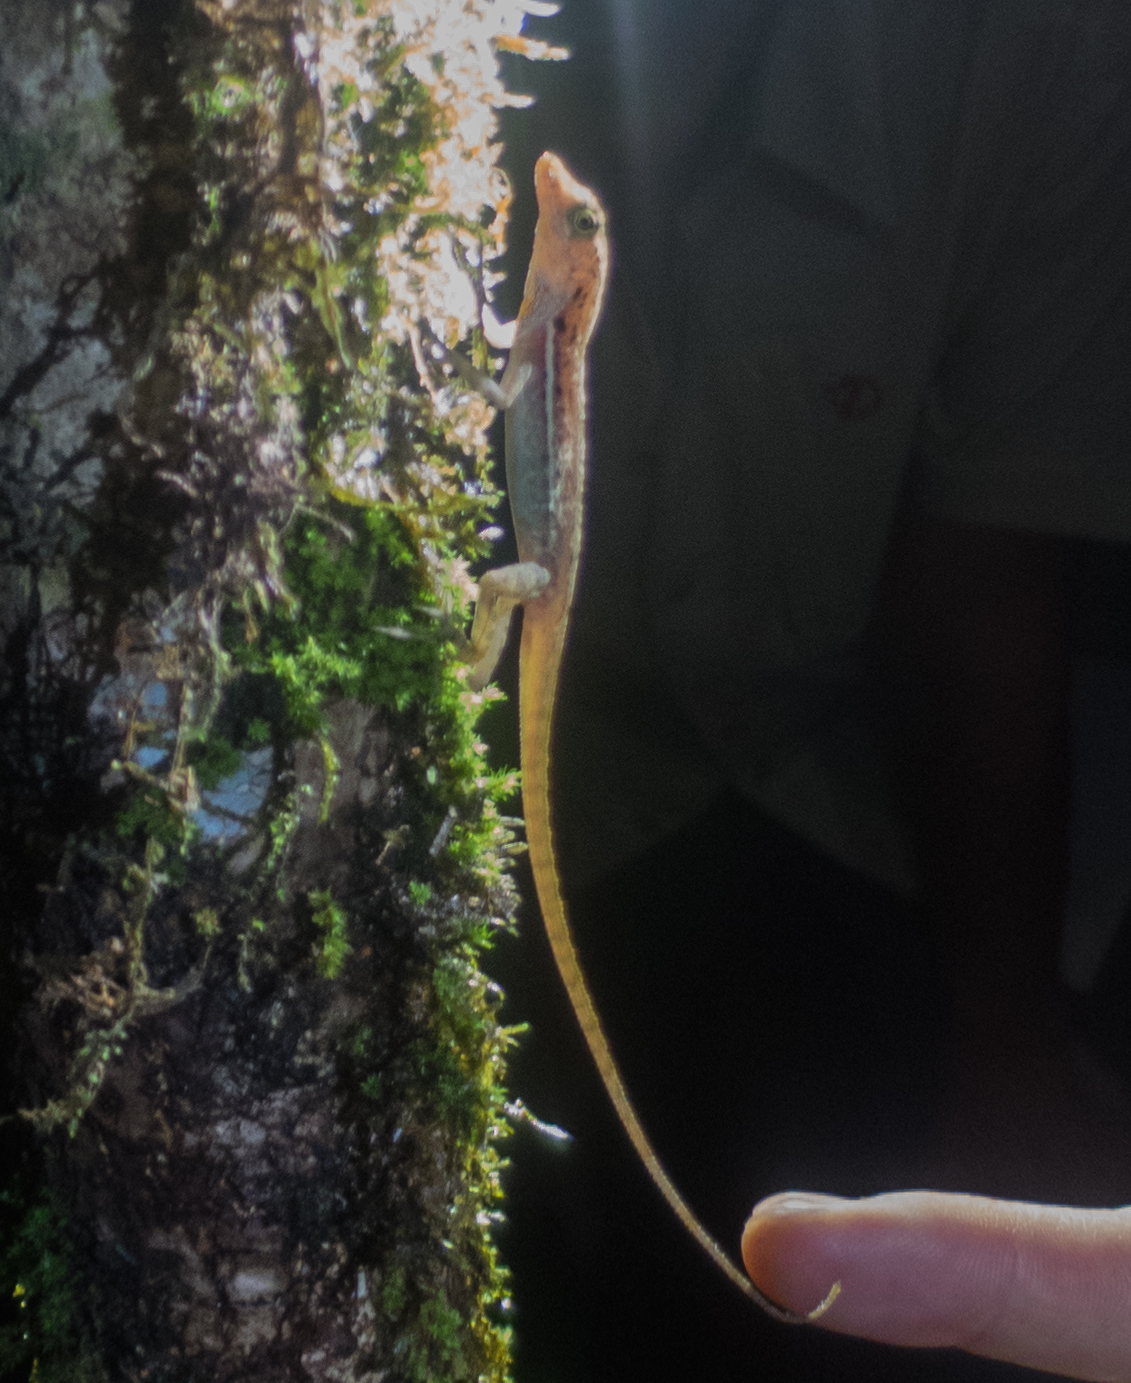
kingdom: Animalia
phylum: Chordata
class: Squamata
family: Dactyloidae
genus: Anolis
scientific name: Anolis polylepis
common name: Many-scaled anole
